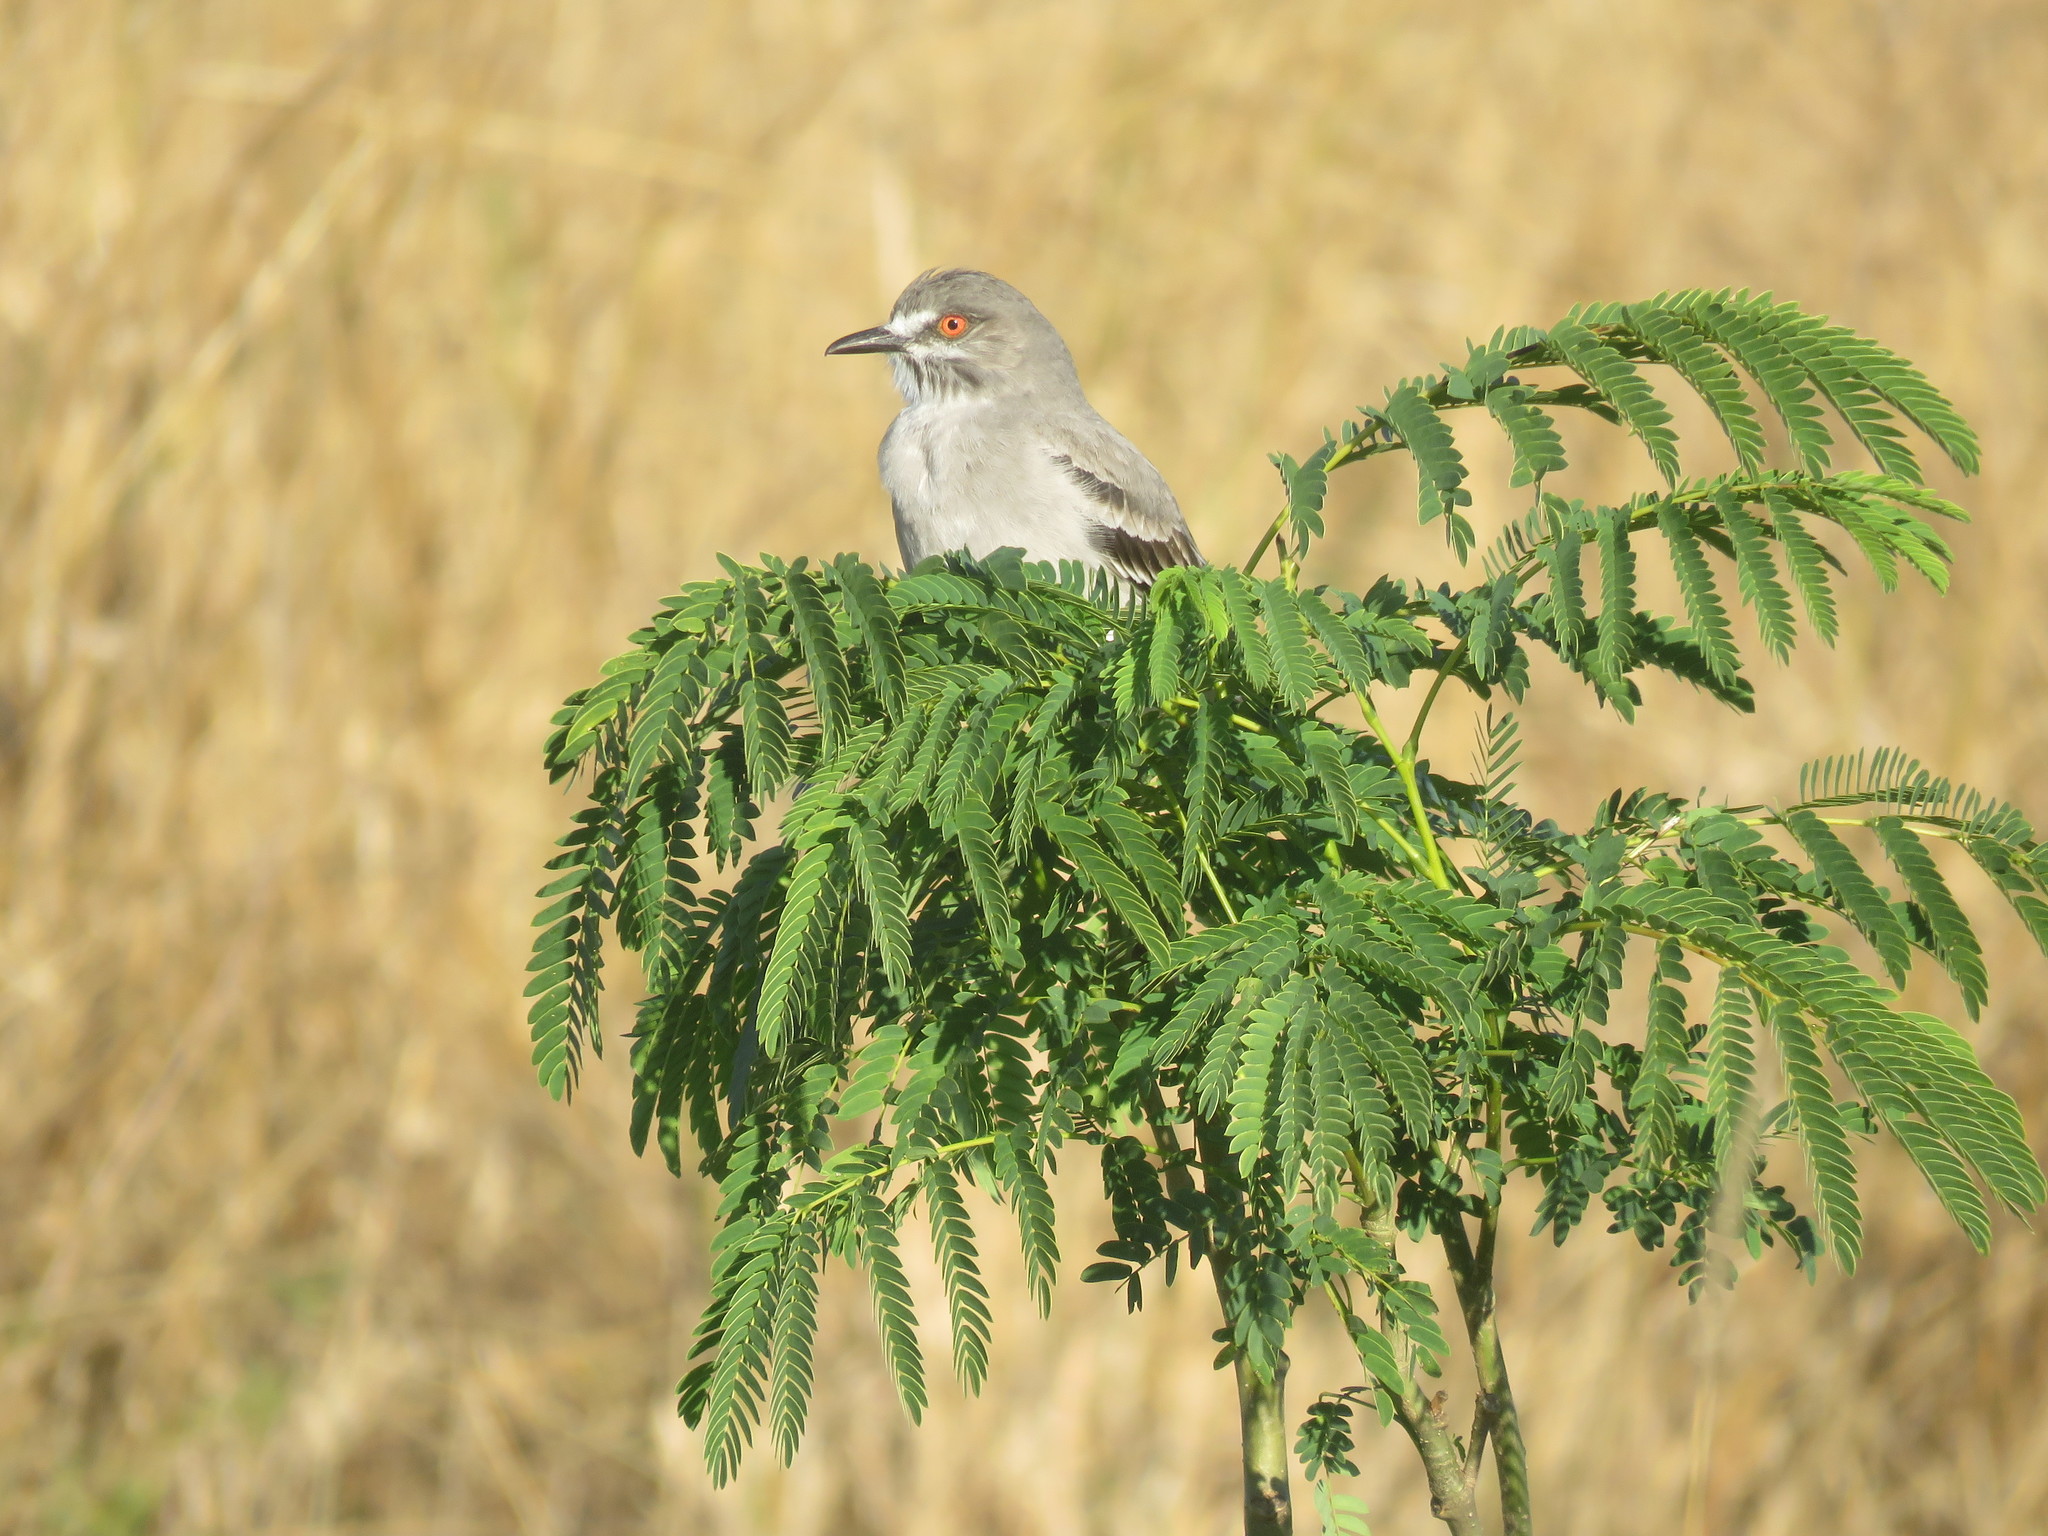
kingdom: Animalia
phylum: Chordata
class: Aves
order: Passeriformes
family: Tyrannidae
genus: Xolmis
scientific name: Xolmis cinereus
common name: Grey monjita
